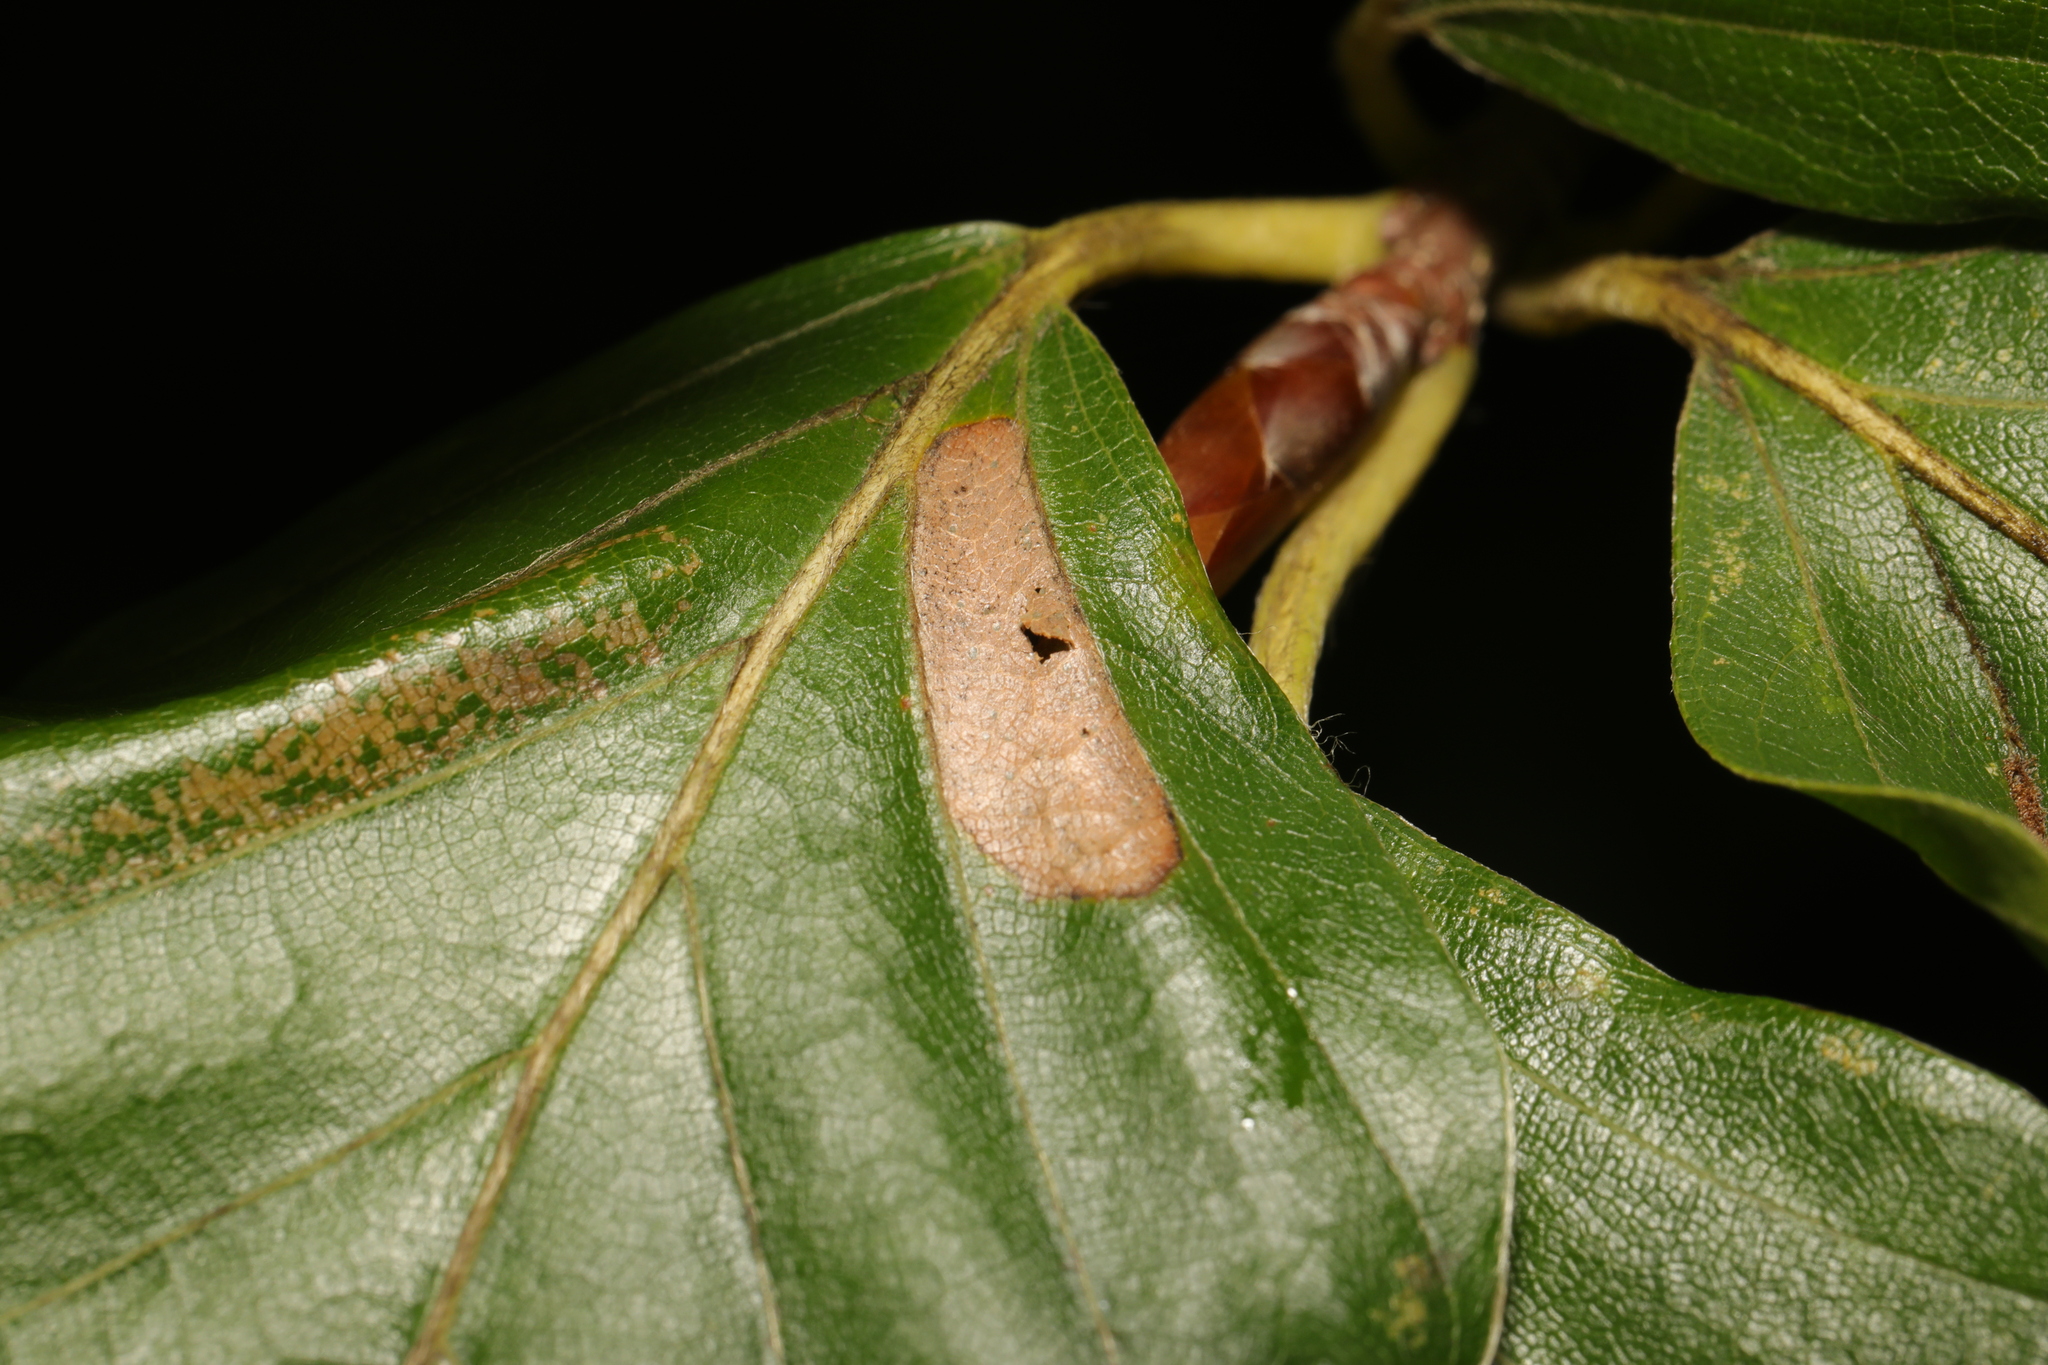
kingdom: Animalia
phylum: Arthropoda
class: Insecta
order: Lepidoptera
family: Gracillariidae
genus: Phyllonorycter
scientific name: Phyllonorycter maestingella
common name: Beech midget
